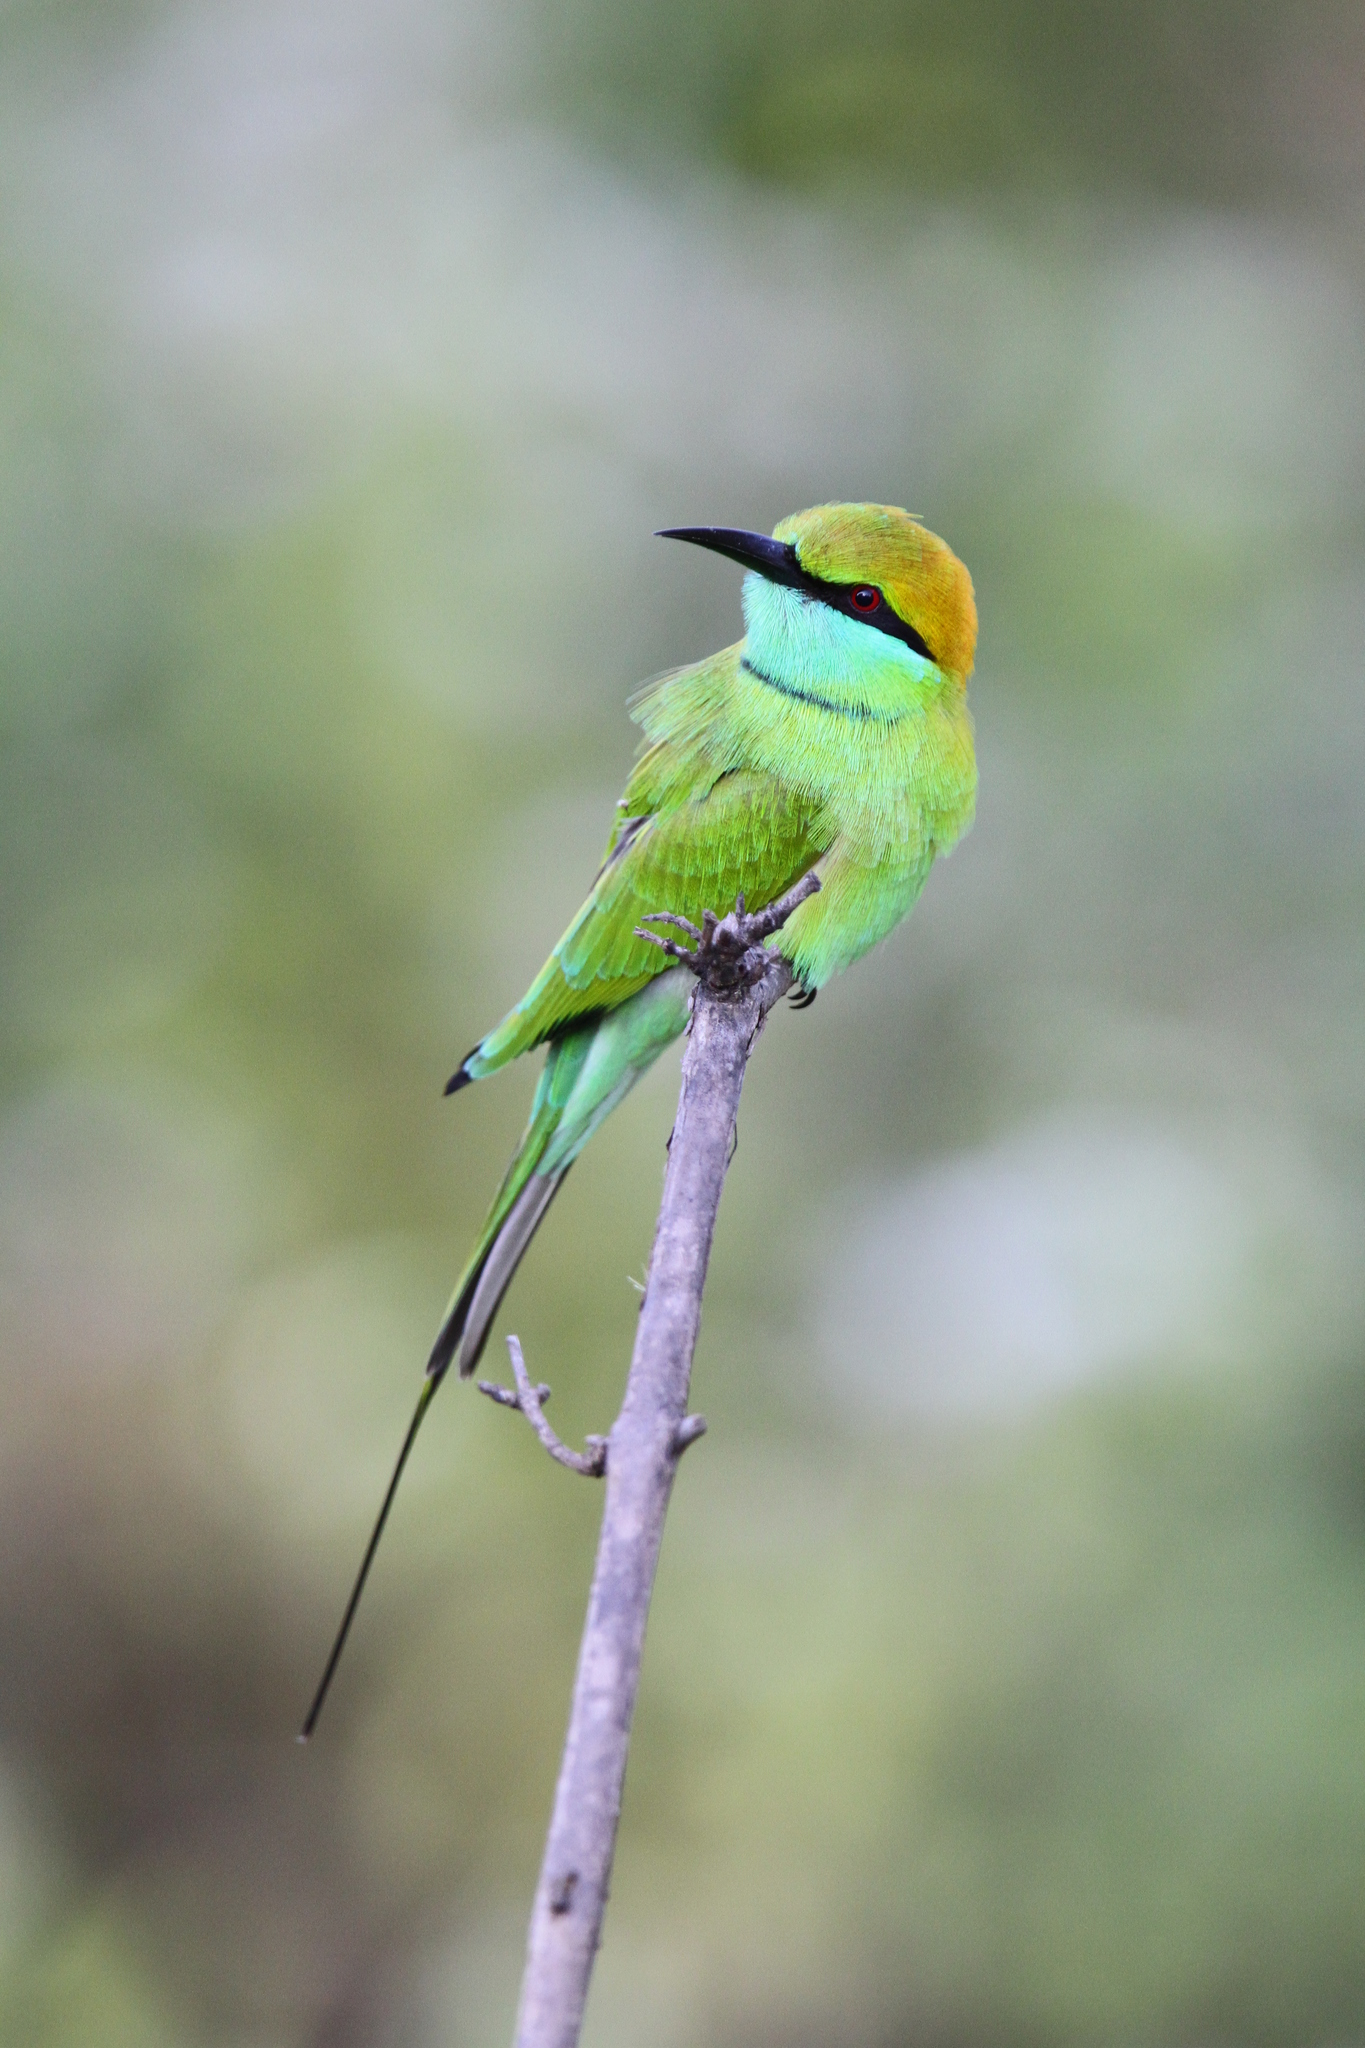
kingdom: Animalia
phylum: Chordata
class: Aves
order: Coraciiformes
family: Meropidae
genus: Merops
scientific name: Merops orientalis
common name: Green bee-eater
